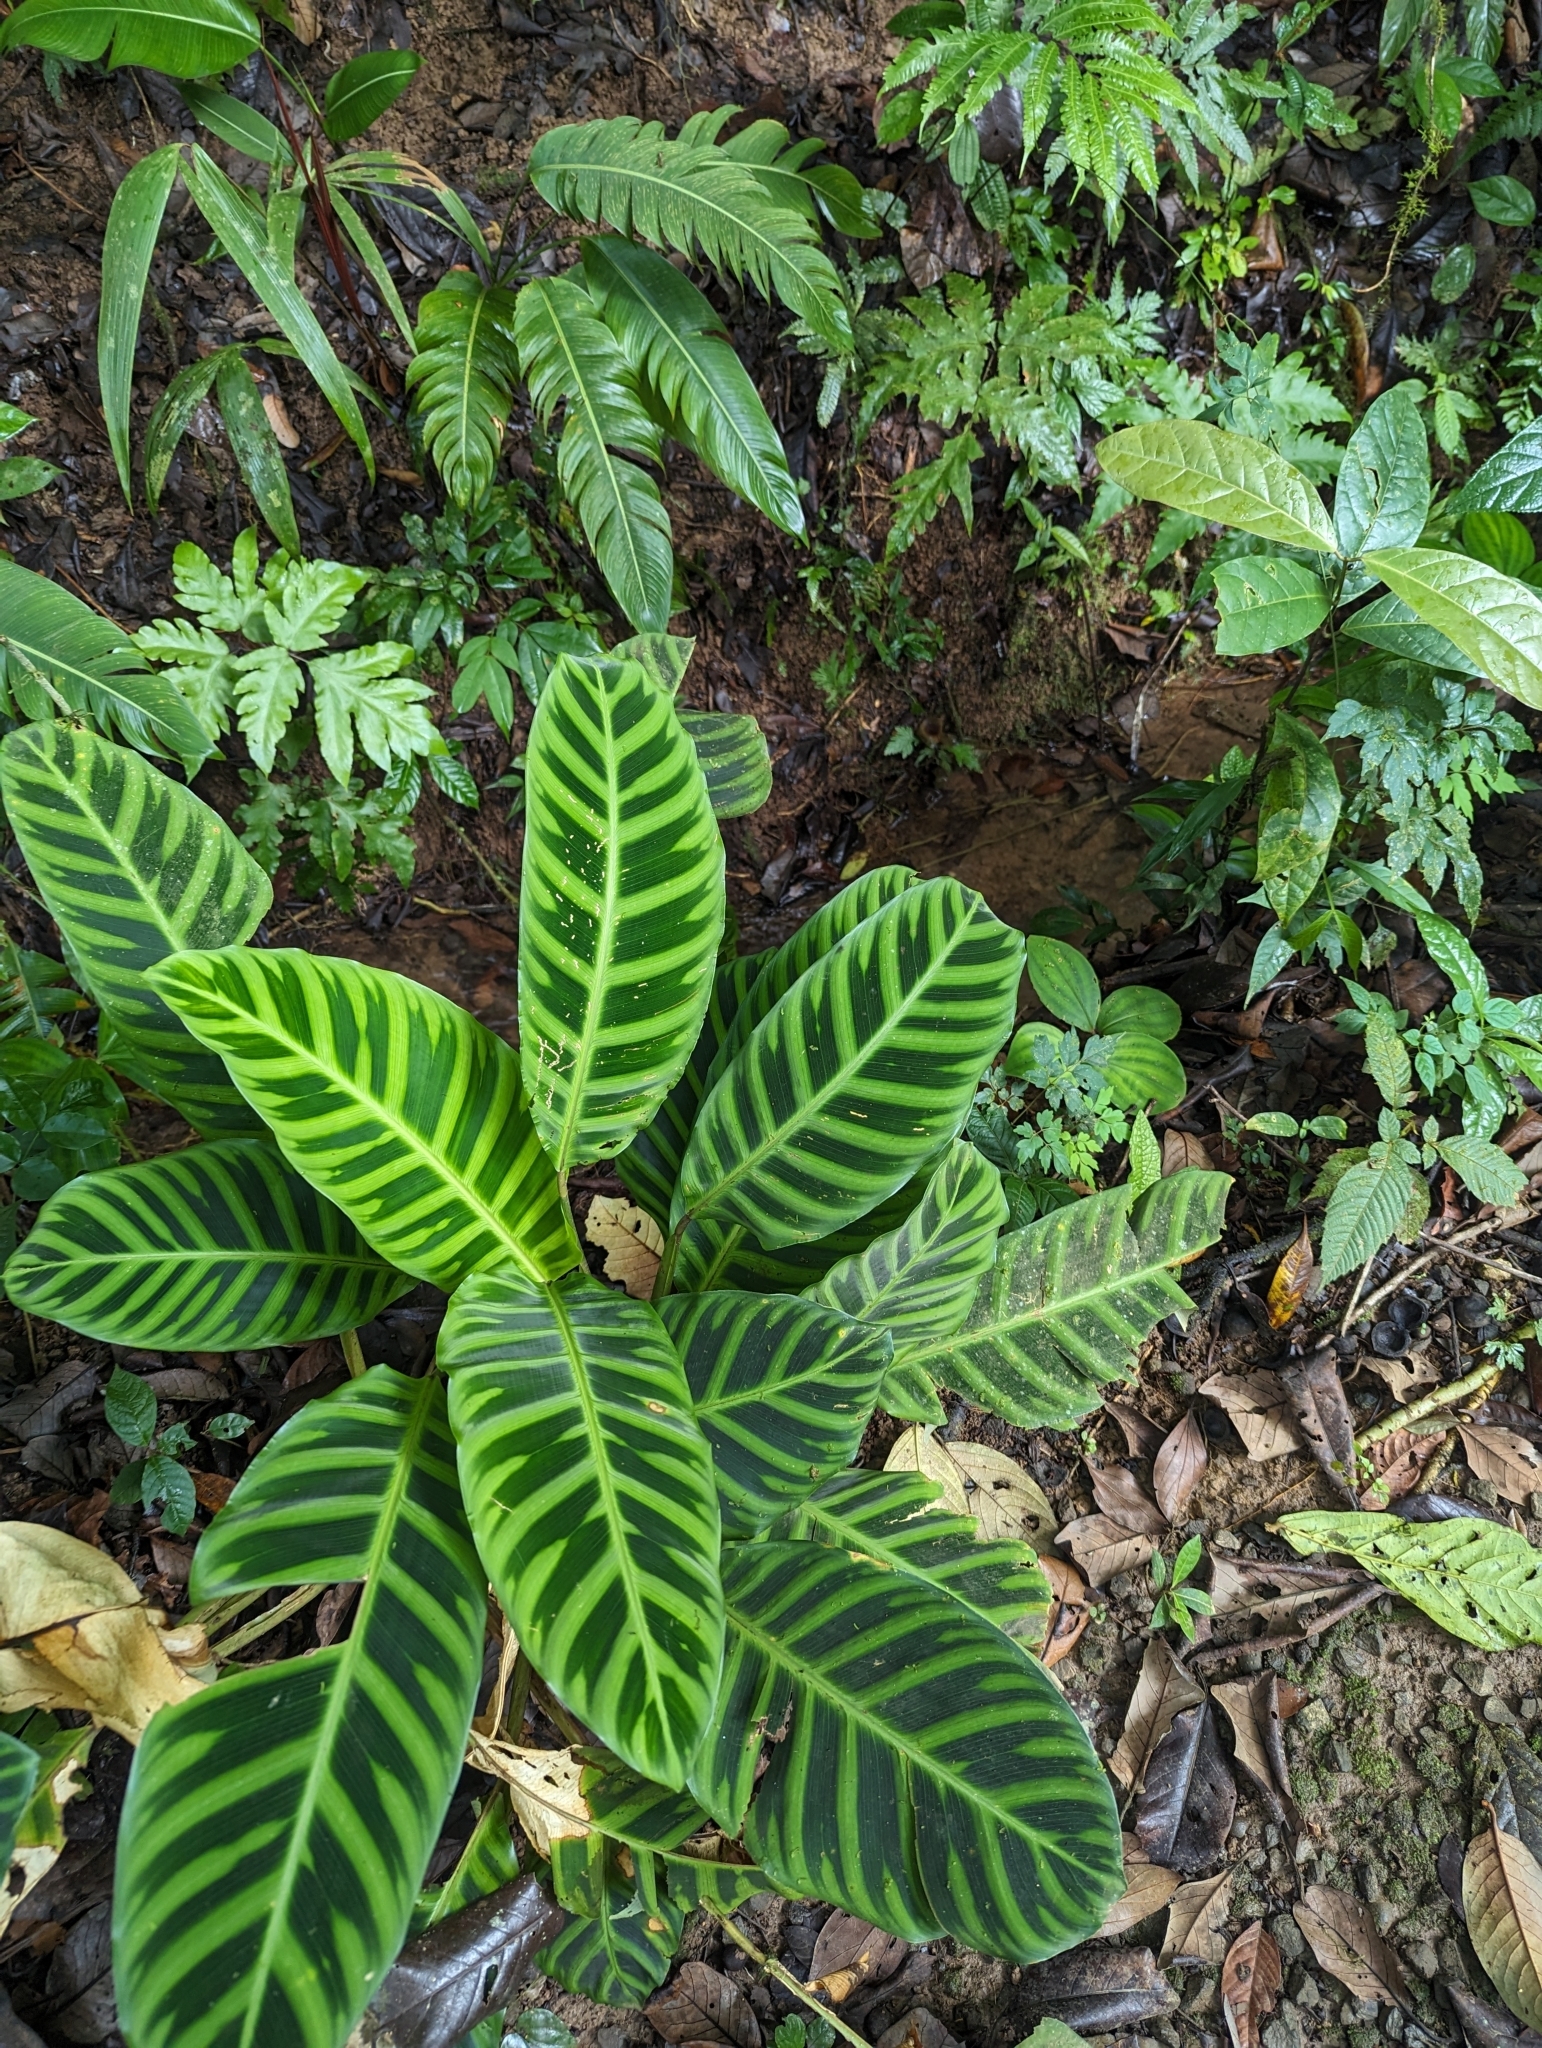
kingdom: Plantae
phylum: Tracheophyta
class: Liliopsida
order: Zingiberales
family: Marantaceae
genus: Goeppertia
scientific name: Goeppertia zebrina
